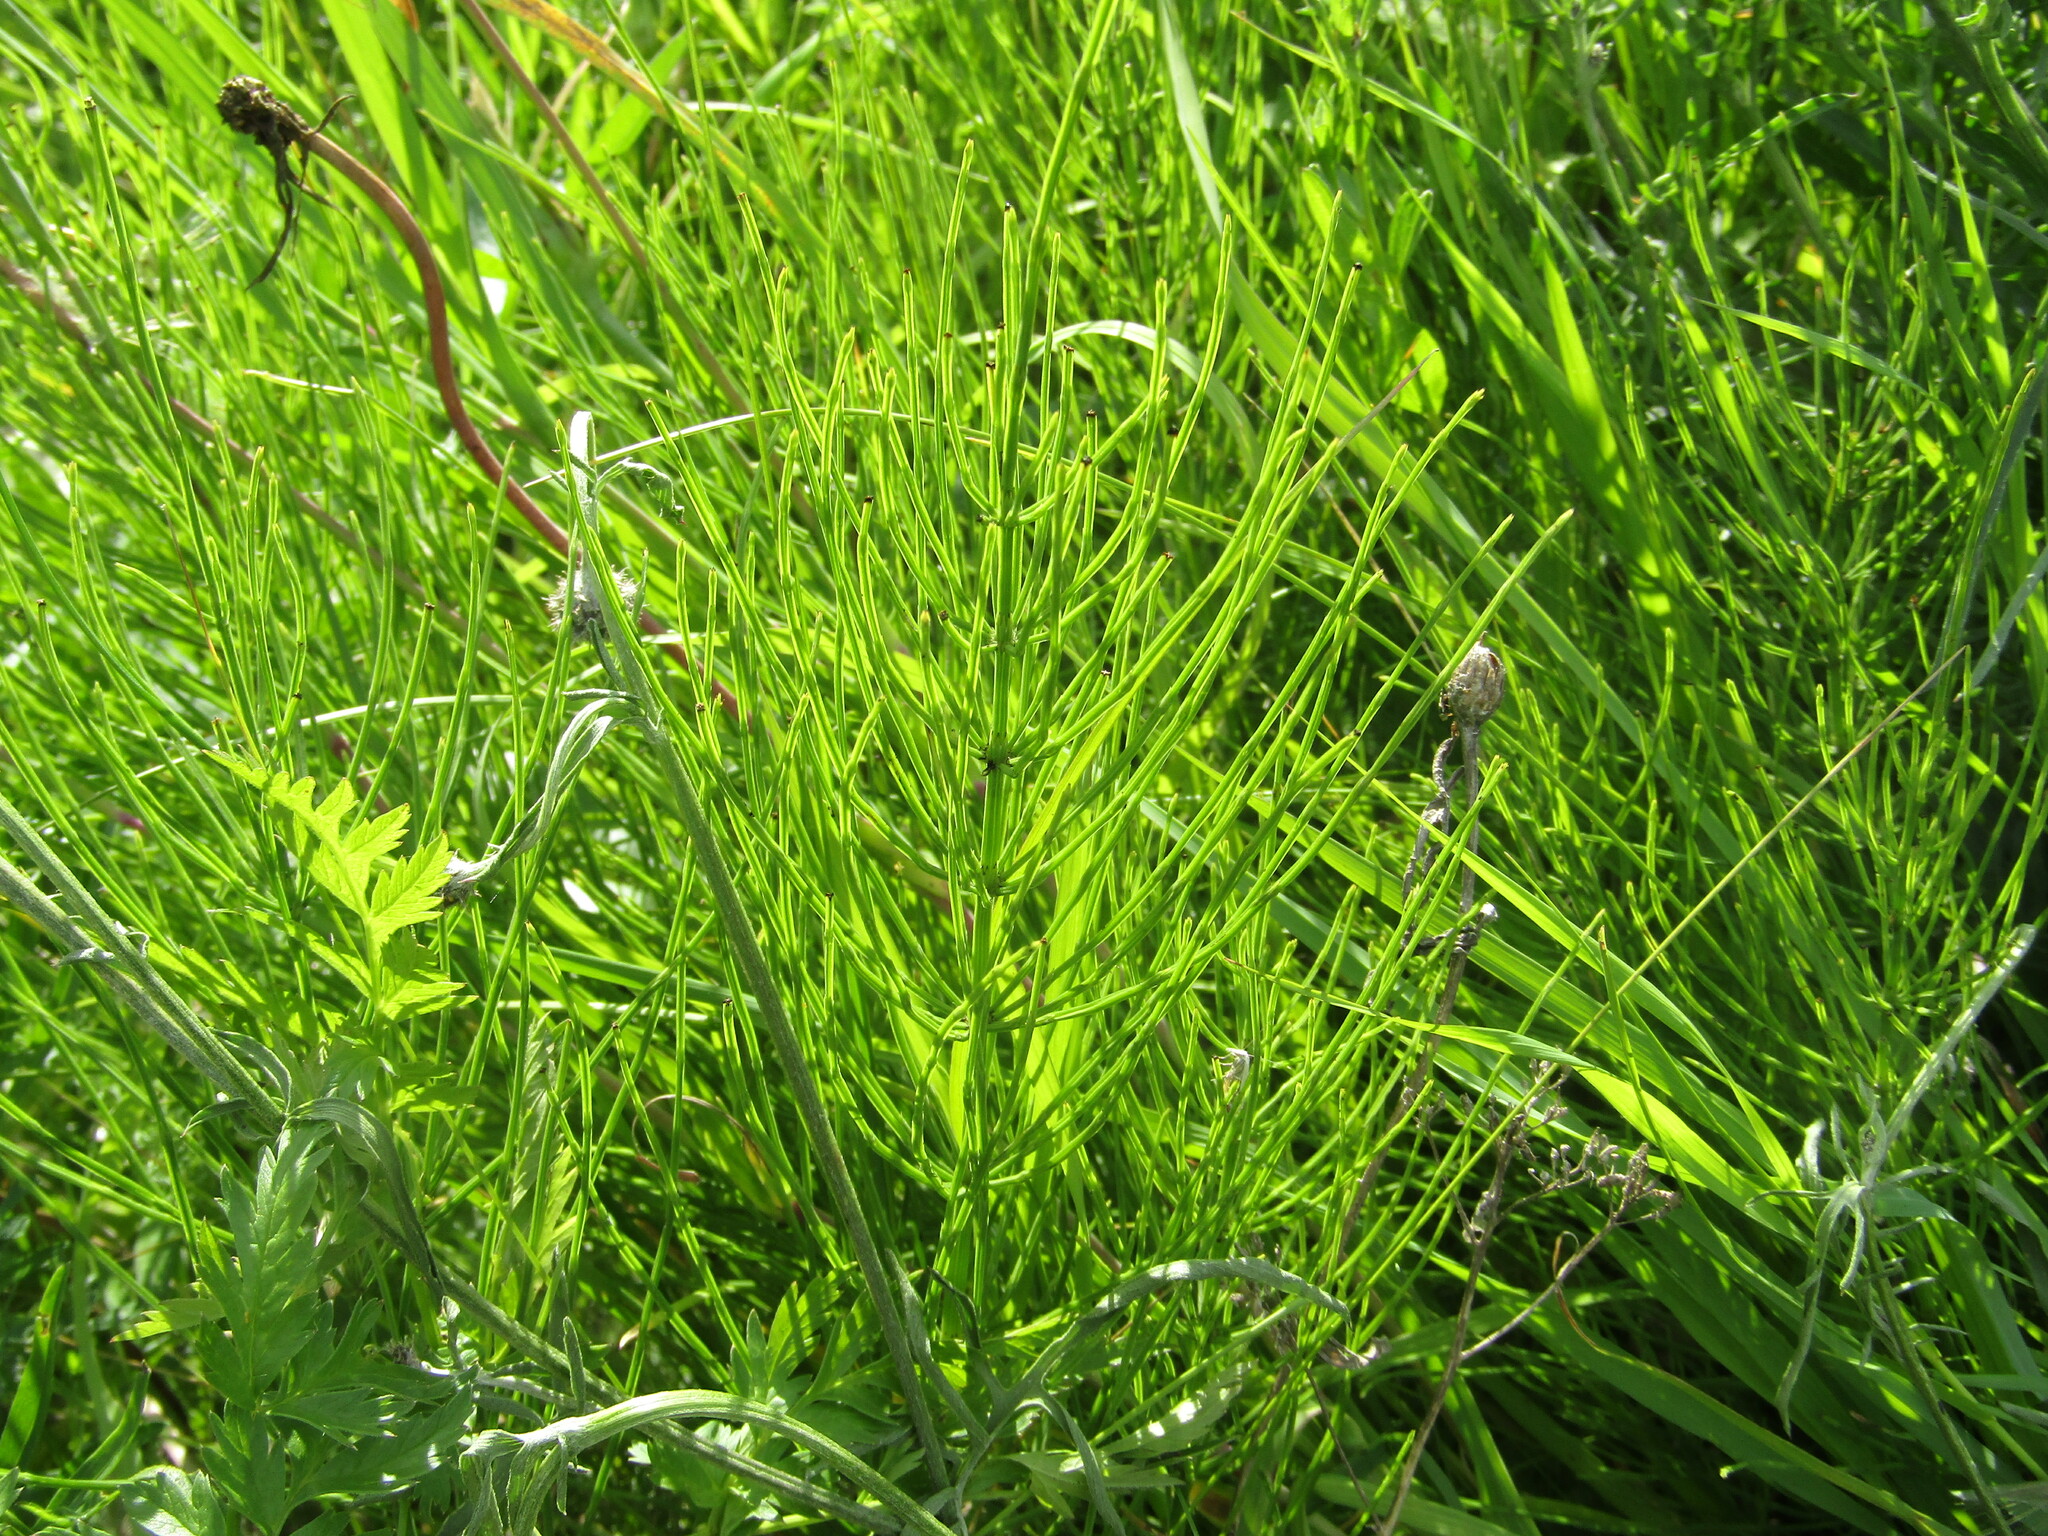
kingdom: Plantae
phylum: Tracheophyta
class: Polypodiopsida
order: Equisetales
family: Equisetaceae
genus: Equisetum
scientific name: Equisetum arvense
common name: Field horsetail
